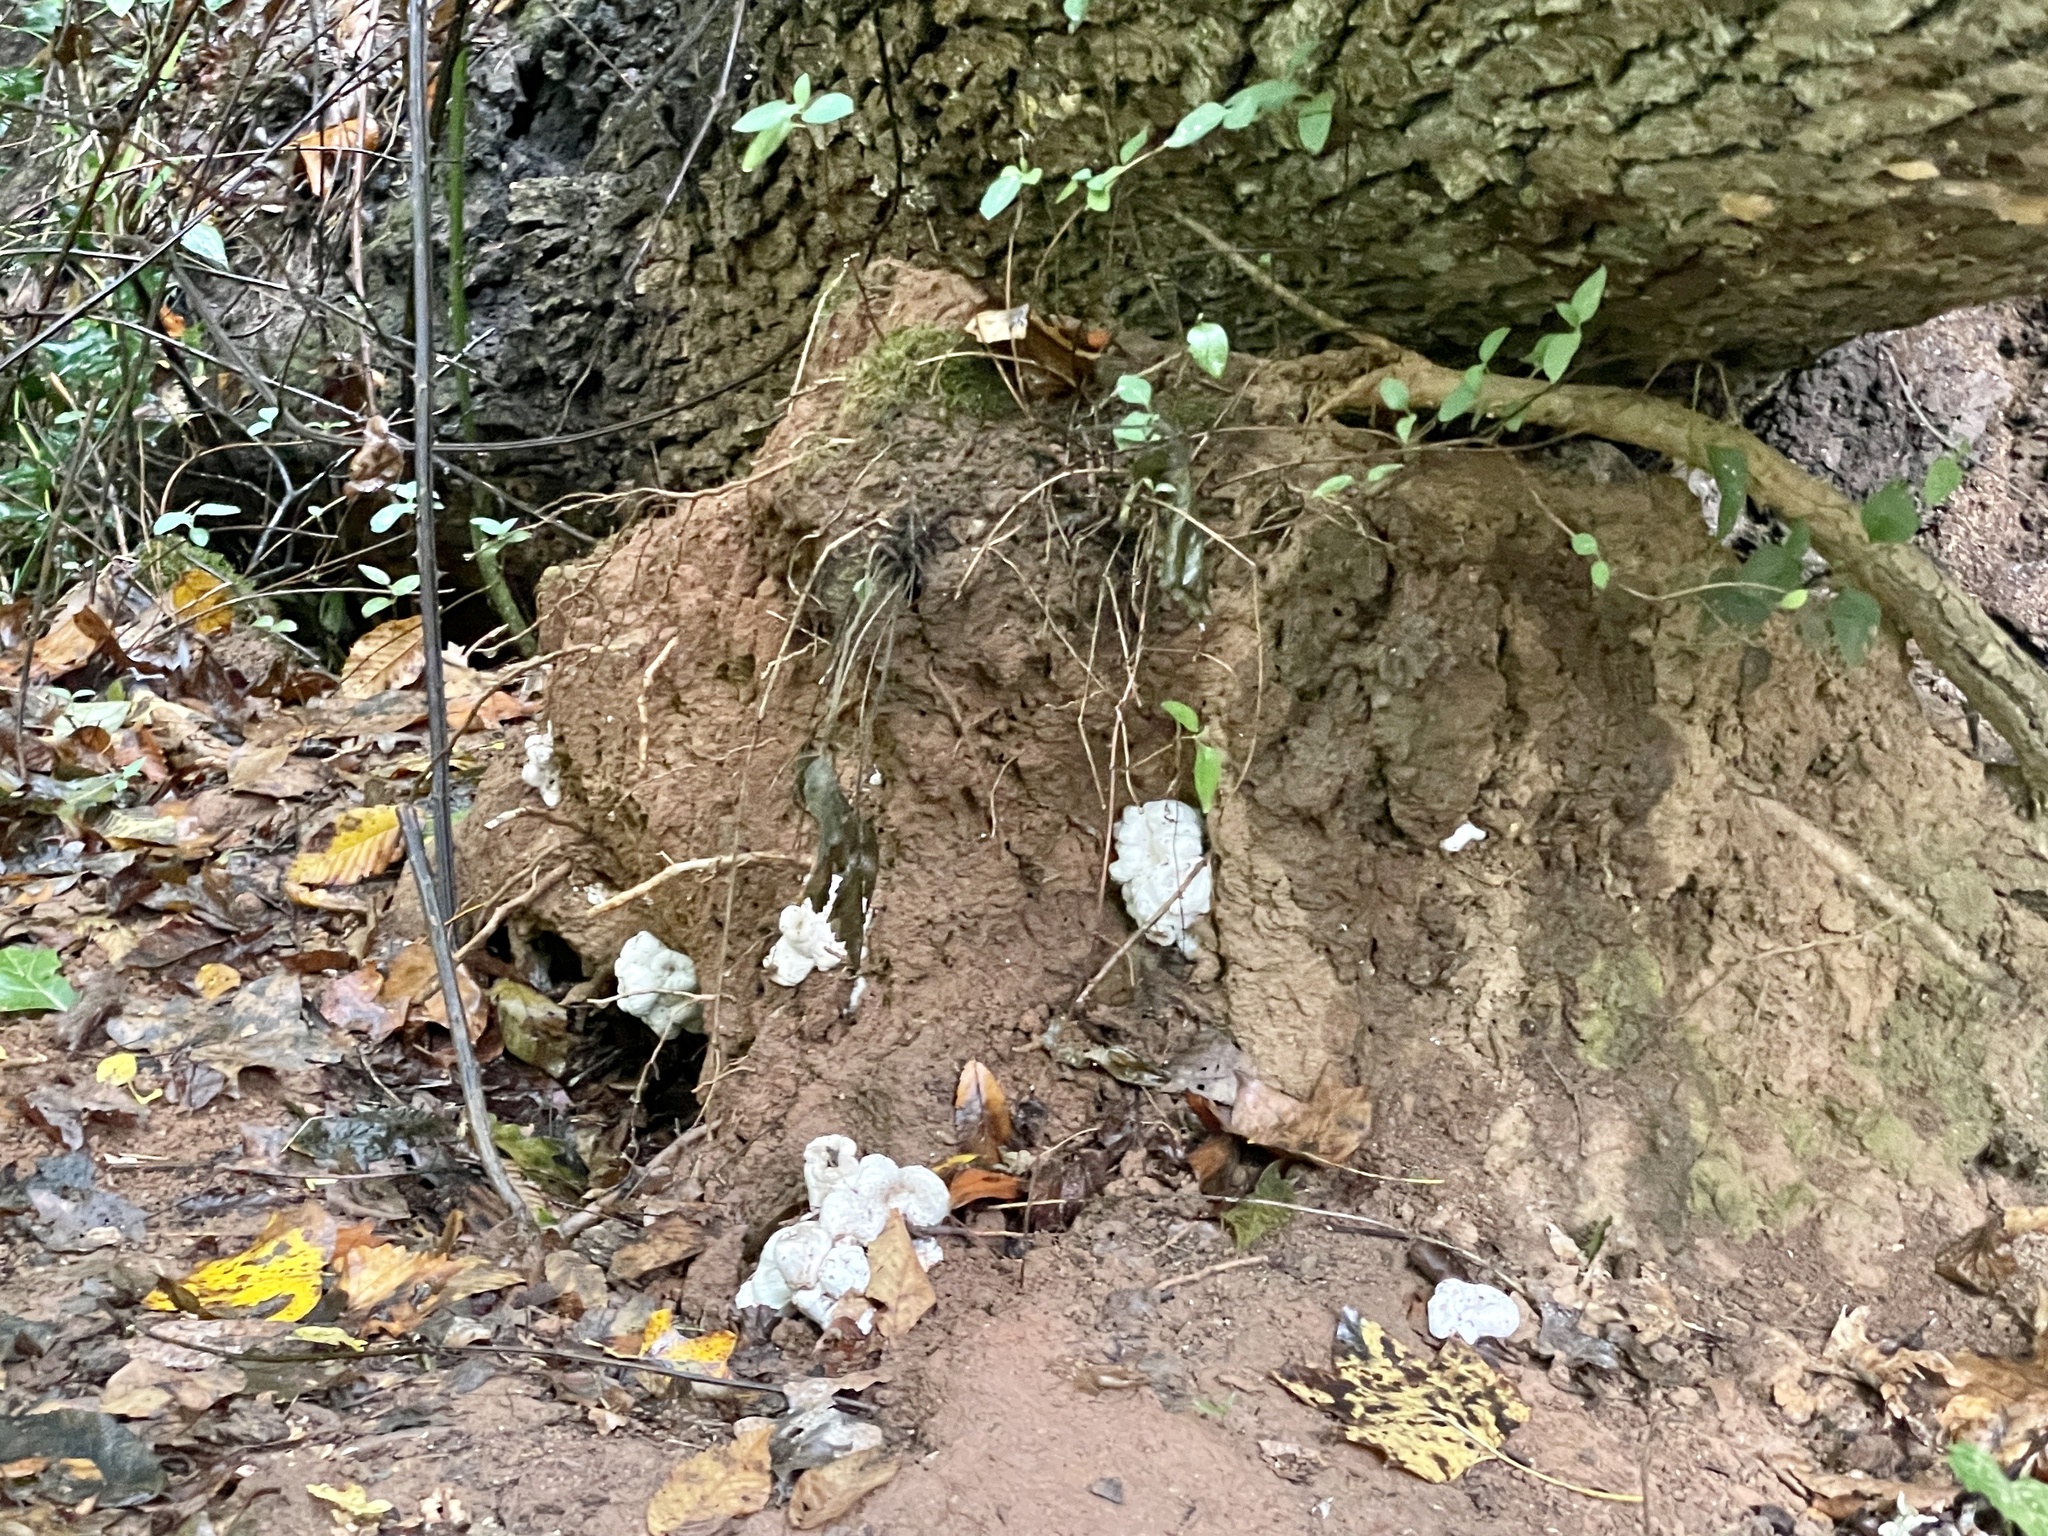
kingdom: Fungi
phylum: Basidiomycota
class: Agaricomycetes
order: Agaricales
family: Entolomataceae
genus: Entoloma
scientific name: Entoloma abortivum
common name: Aborted entoloma
